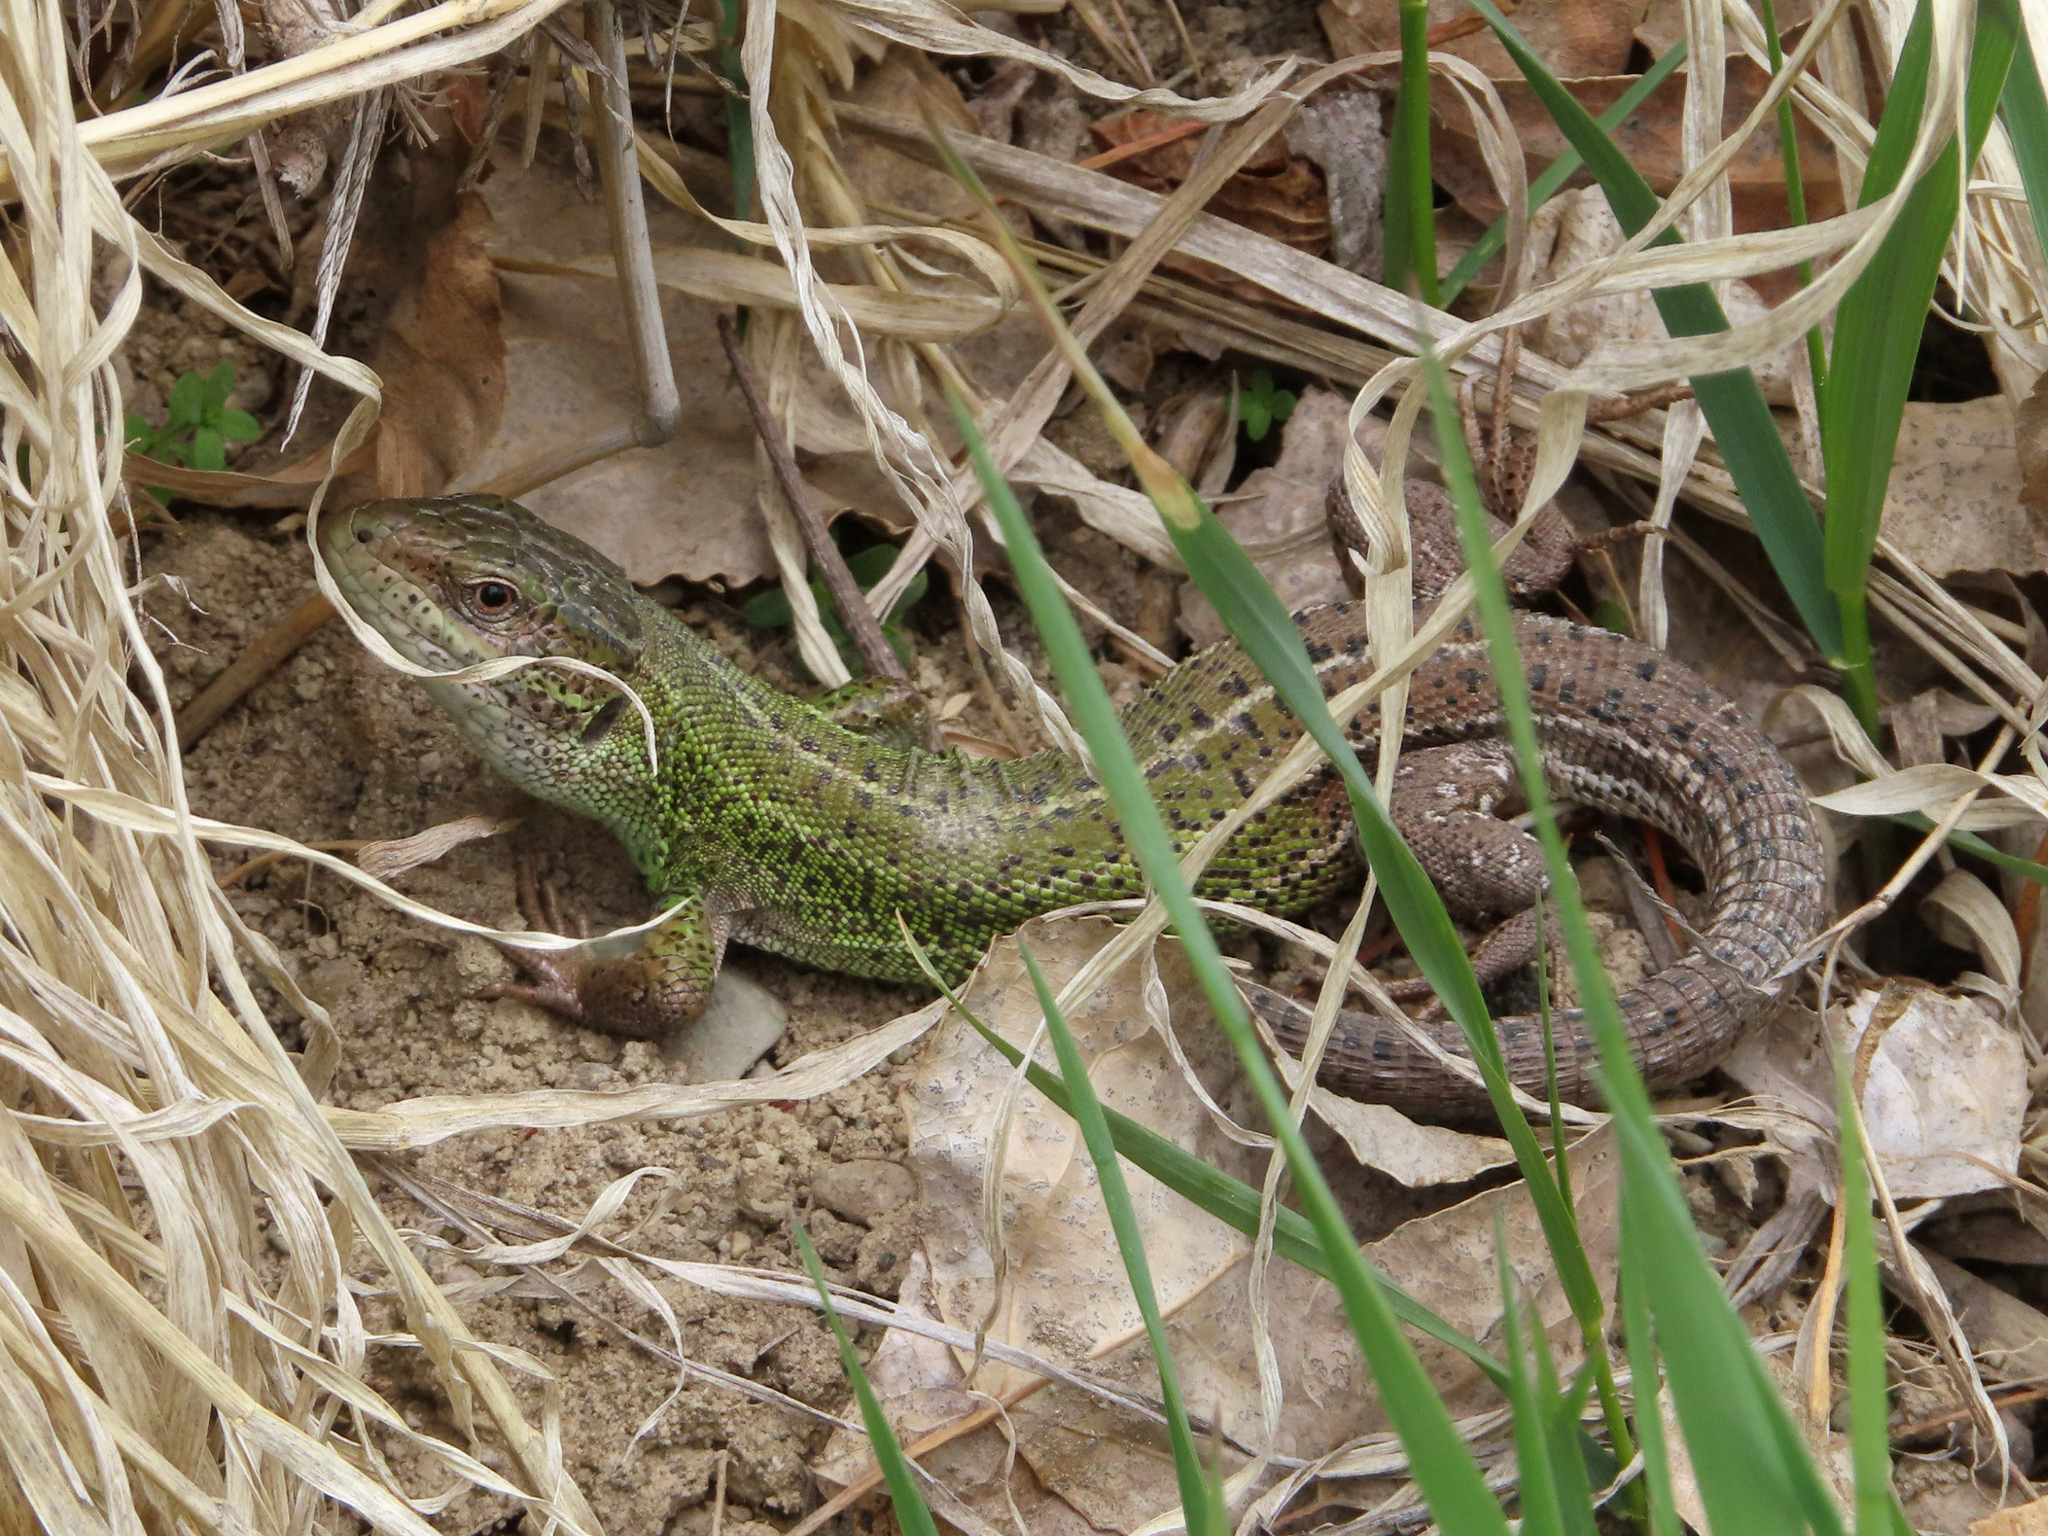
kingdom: Animalia
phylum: Chordata
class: Squamata
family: Lacertidae
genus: Lacerta
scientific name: Lacerta strigata
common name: Caspian green lizard
